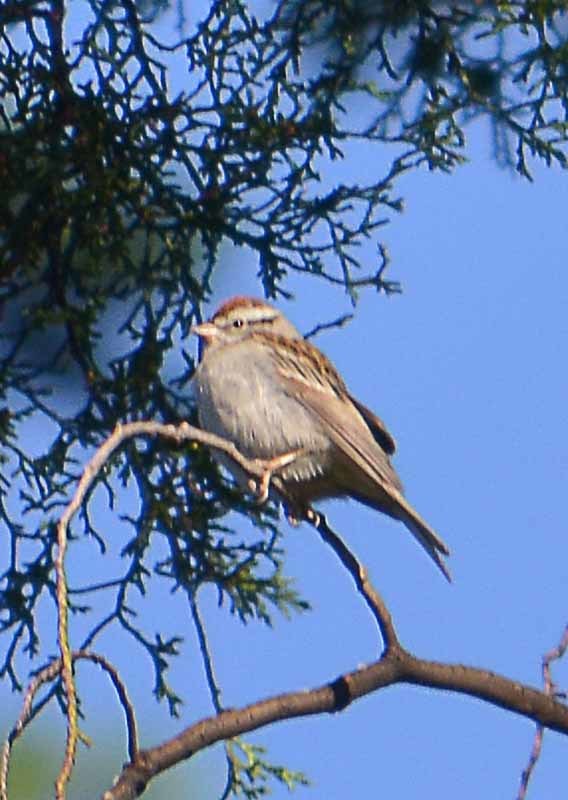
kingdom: Animalia
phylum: Chordata
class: Aves
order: Passeriformes
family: Passerellidae
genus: Spizella
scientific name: Spizella passerina
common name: Chipping sparrow
